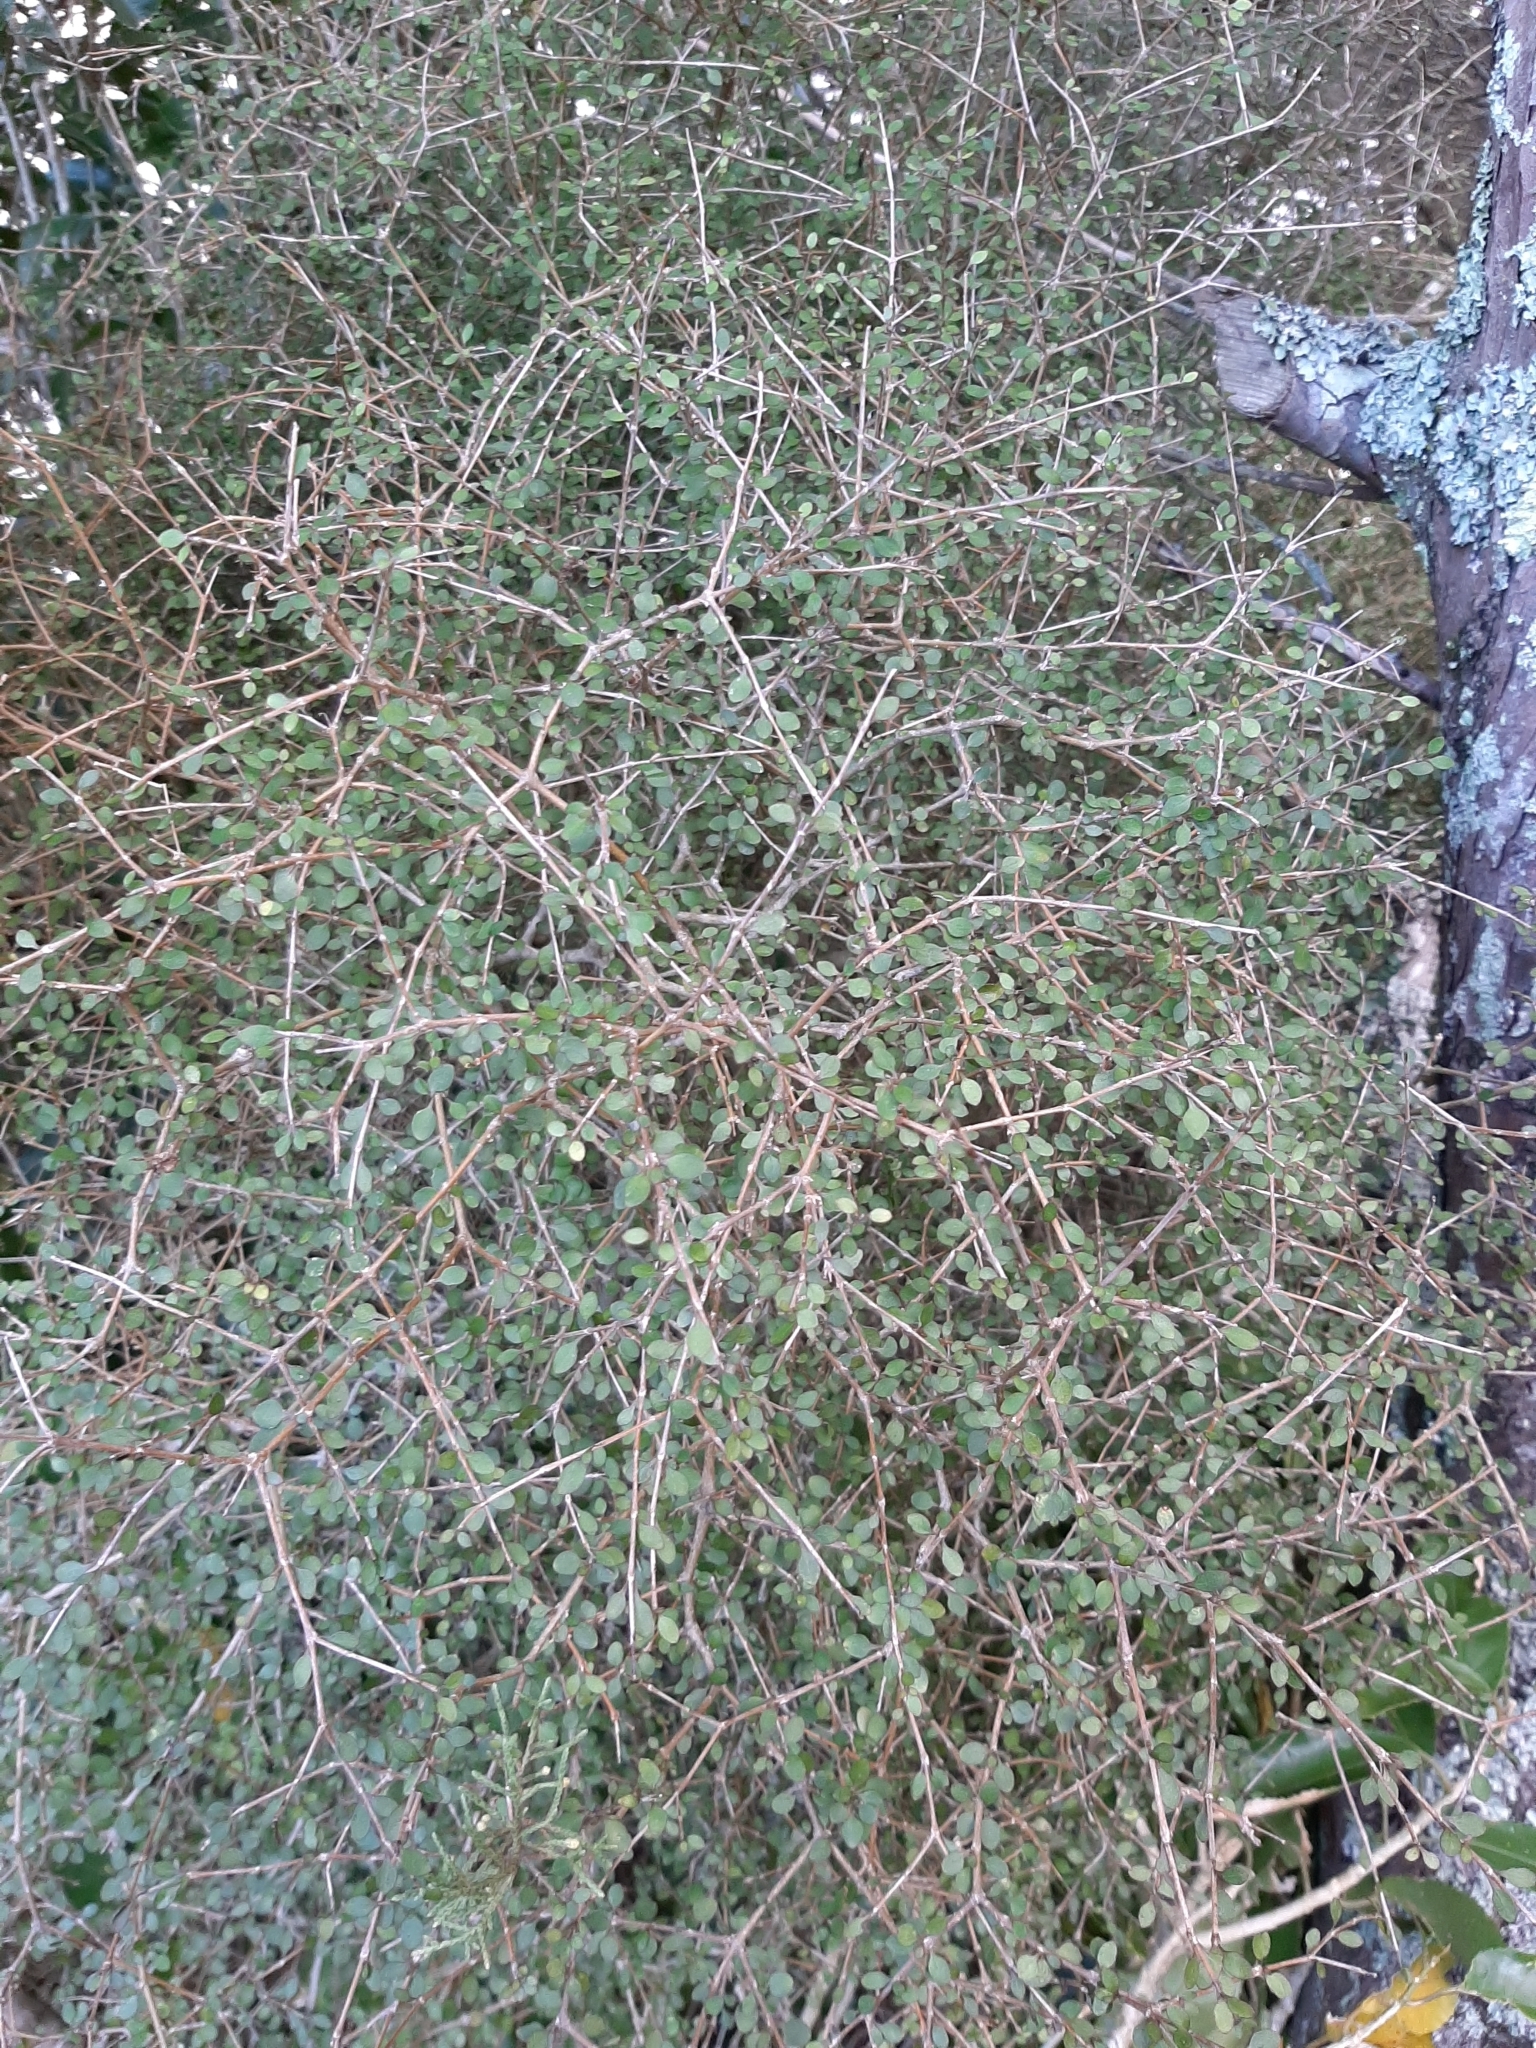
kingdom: Plantae
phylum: Tracheophyta
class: Magnoliopsida
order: Gentianales
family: Rubiaceae
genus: Coprosma
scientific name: Coprosma virescens
